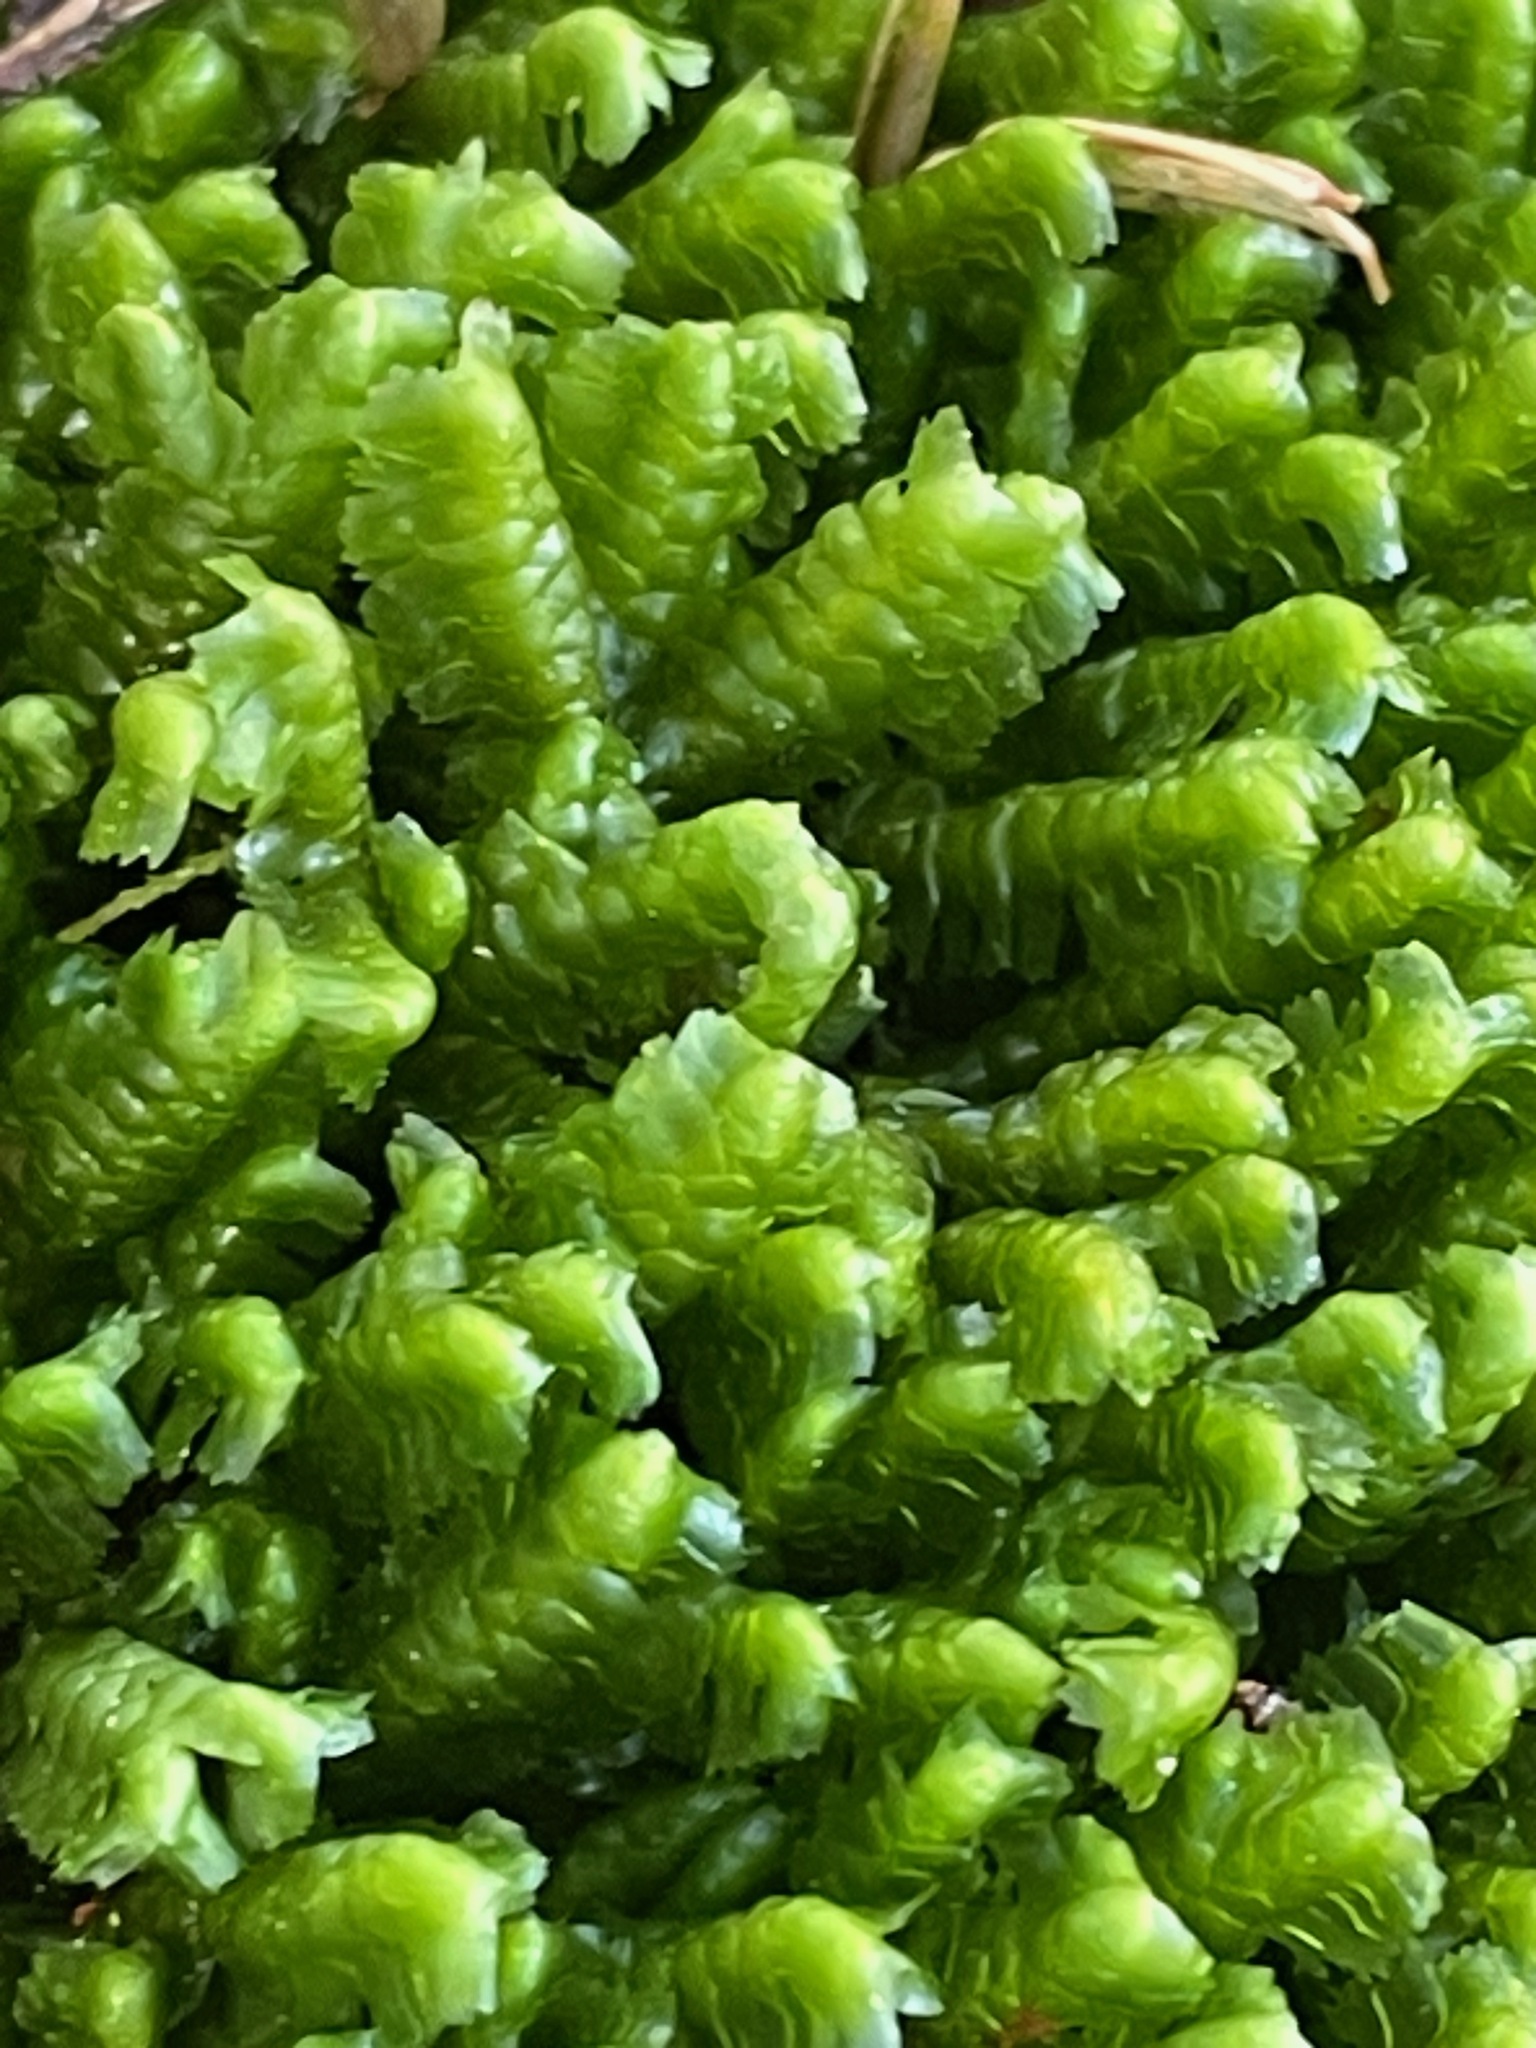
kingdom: Plantae
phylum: Marchantiophyta
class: Jungermanniopsida
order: Jungermanniales
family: Lepidoziaceae
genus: Bazzania
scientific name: Bazzania trilobata
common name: Three-lobed whipwort
